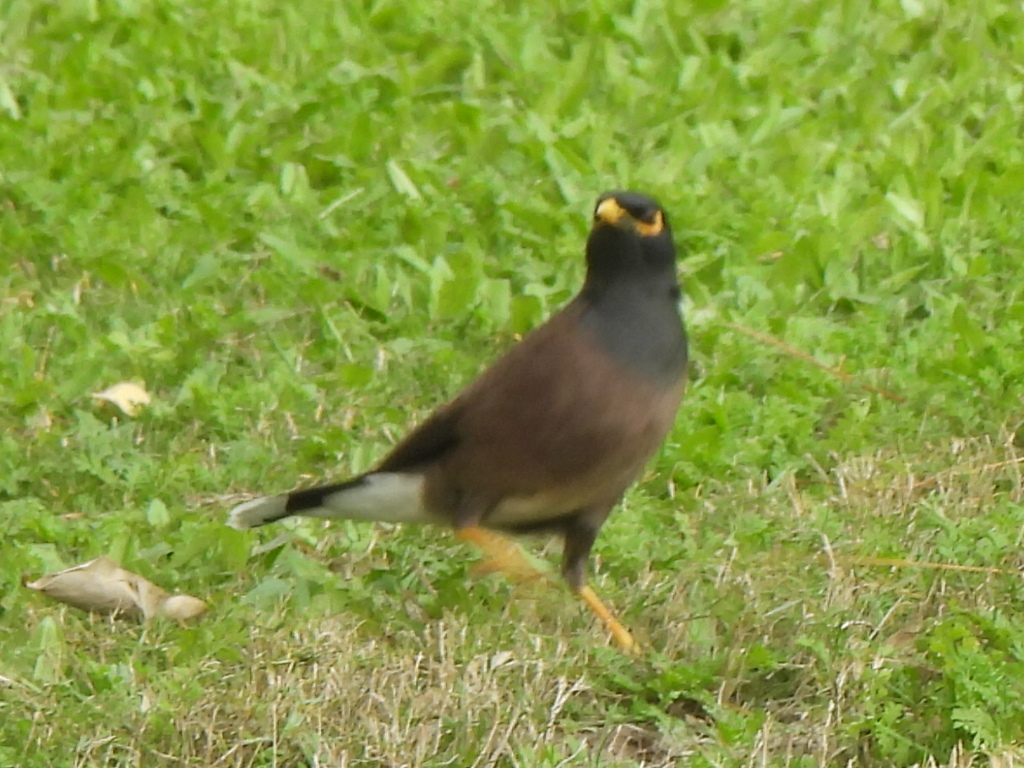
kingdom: Animalia
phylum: Chordata
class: Aves
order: Passeriformes
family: Sturnidae
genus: Acridotheres
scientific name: Acridotheres tristis
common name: Common myna
